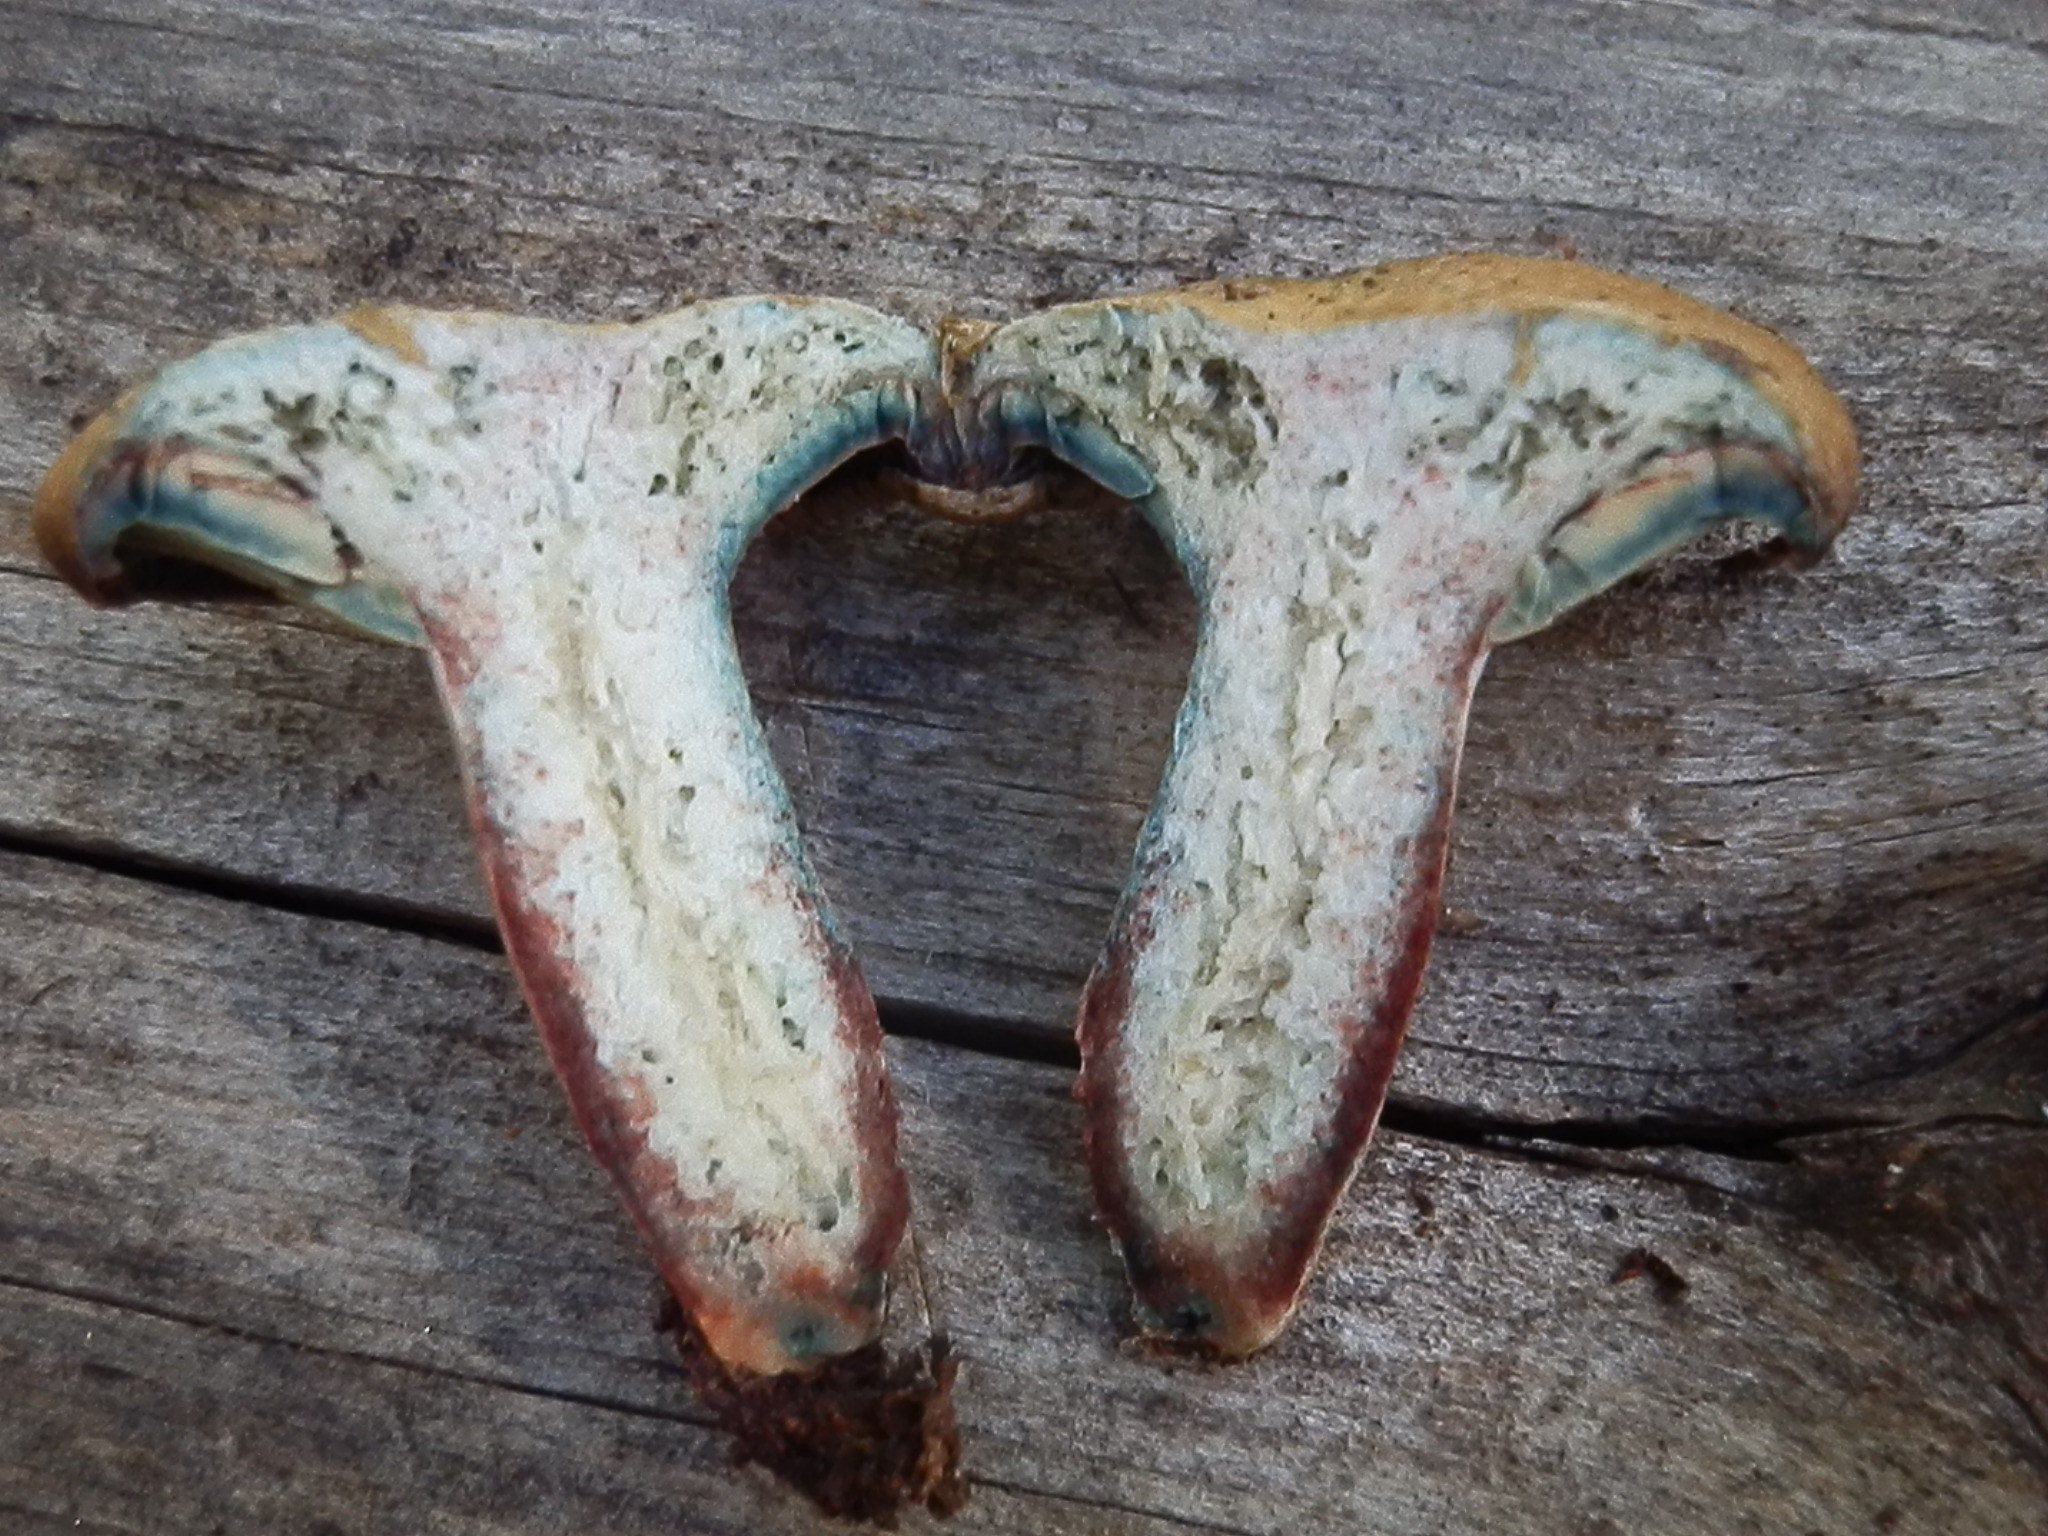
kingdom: Fungi
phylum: Basidiomycota
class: Agaricomycetes
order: Russulales
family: Russulaceae
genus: Lactarius
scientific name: Lactarius rubrilacteus
